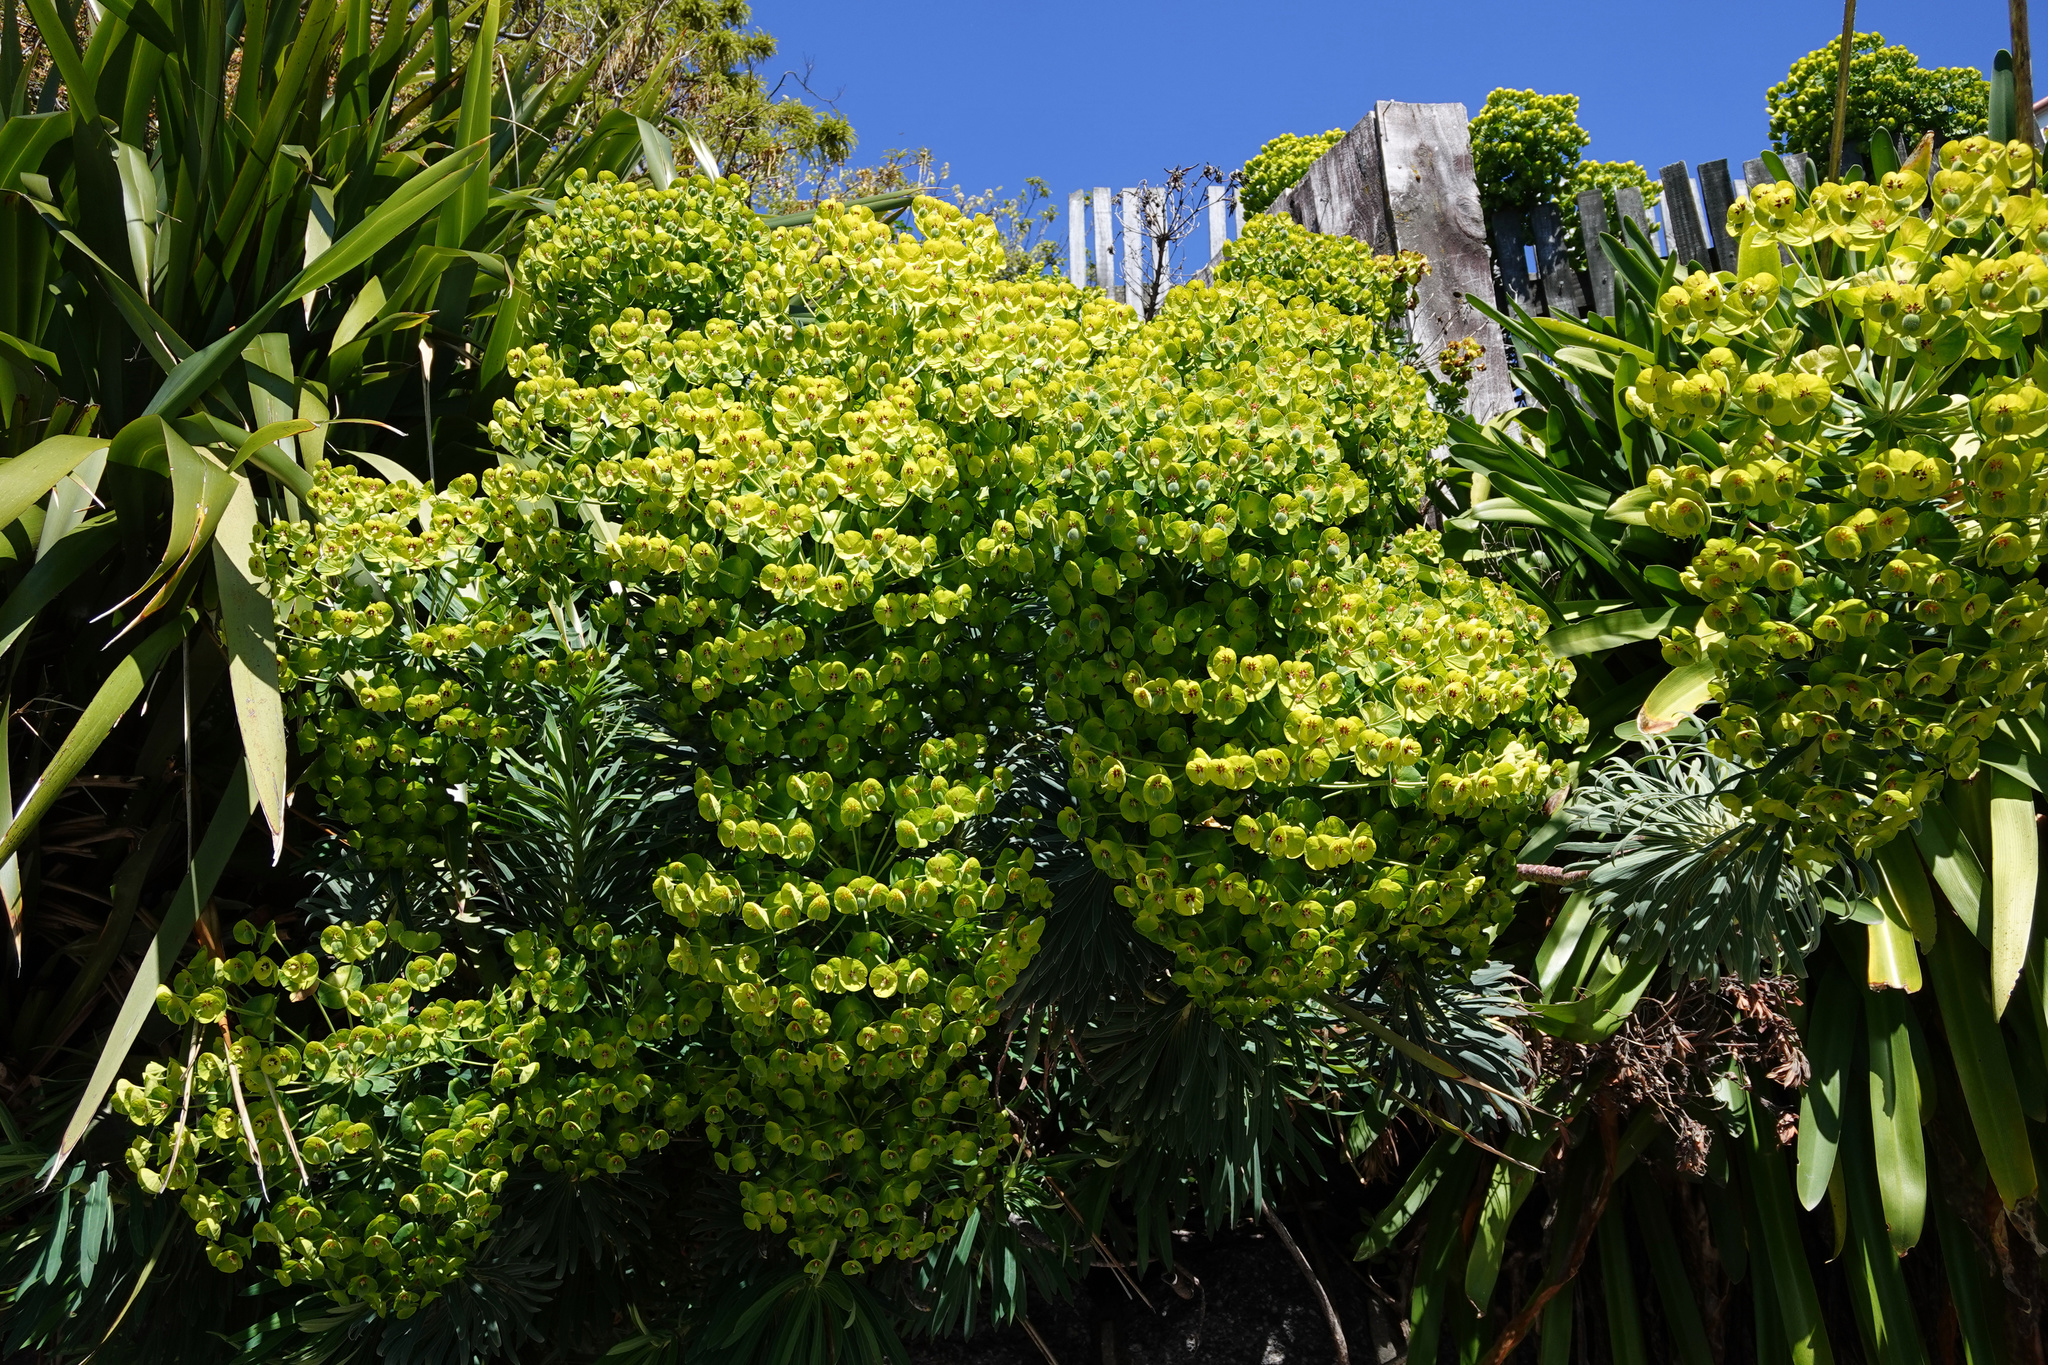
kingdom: Plantae
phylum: Tracheophyta
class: Magnoliopsida
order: Malpighiales
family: Euphorbiaceae
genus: Euphorbia
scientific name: Euphorbia characias
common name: Mediterranean spurge
